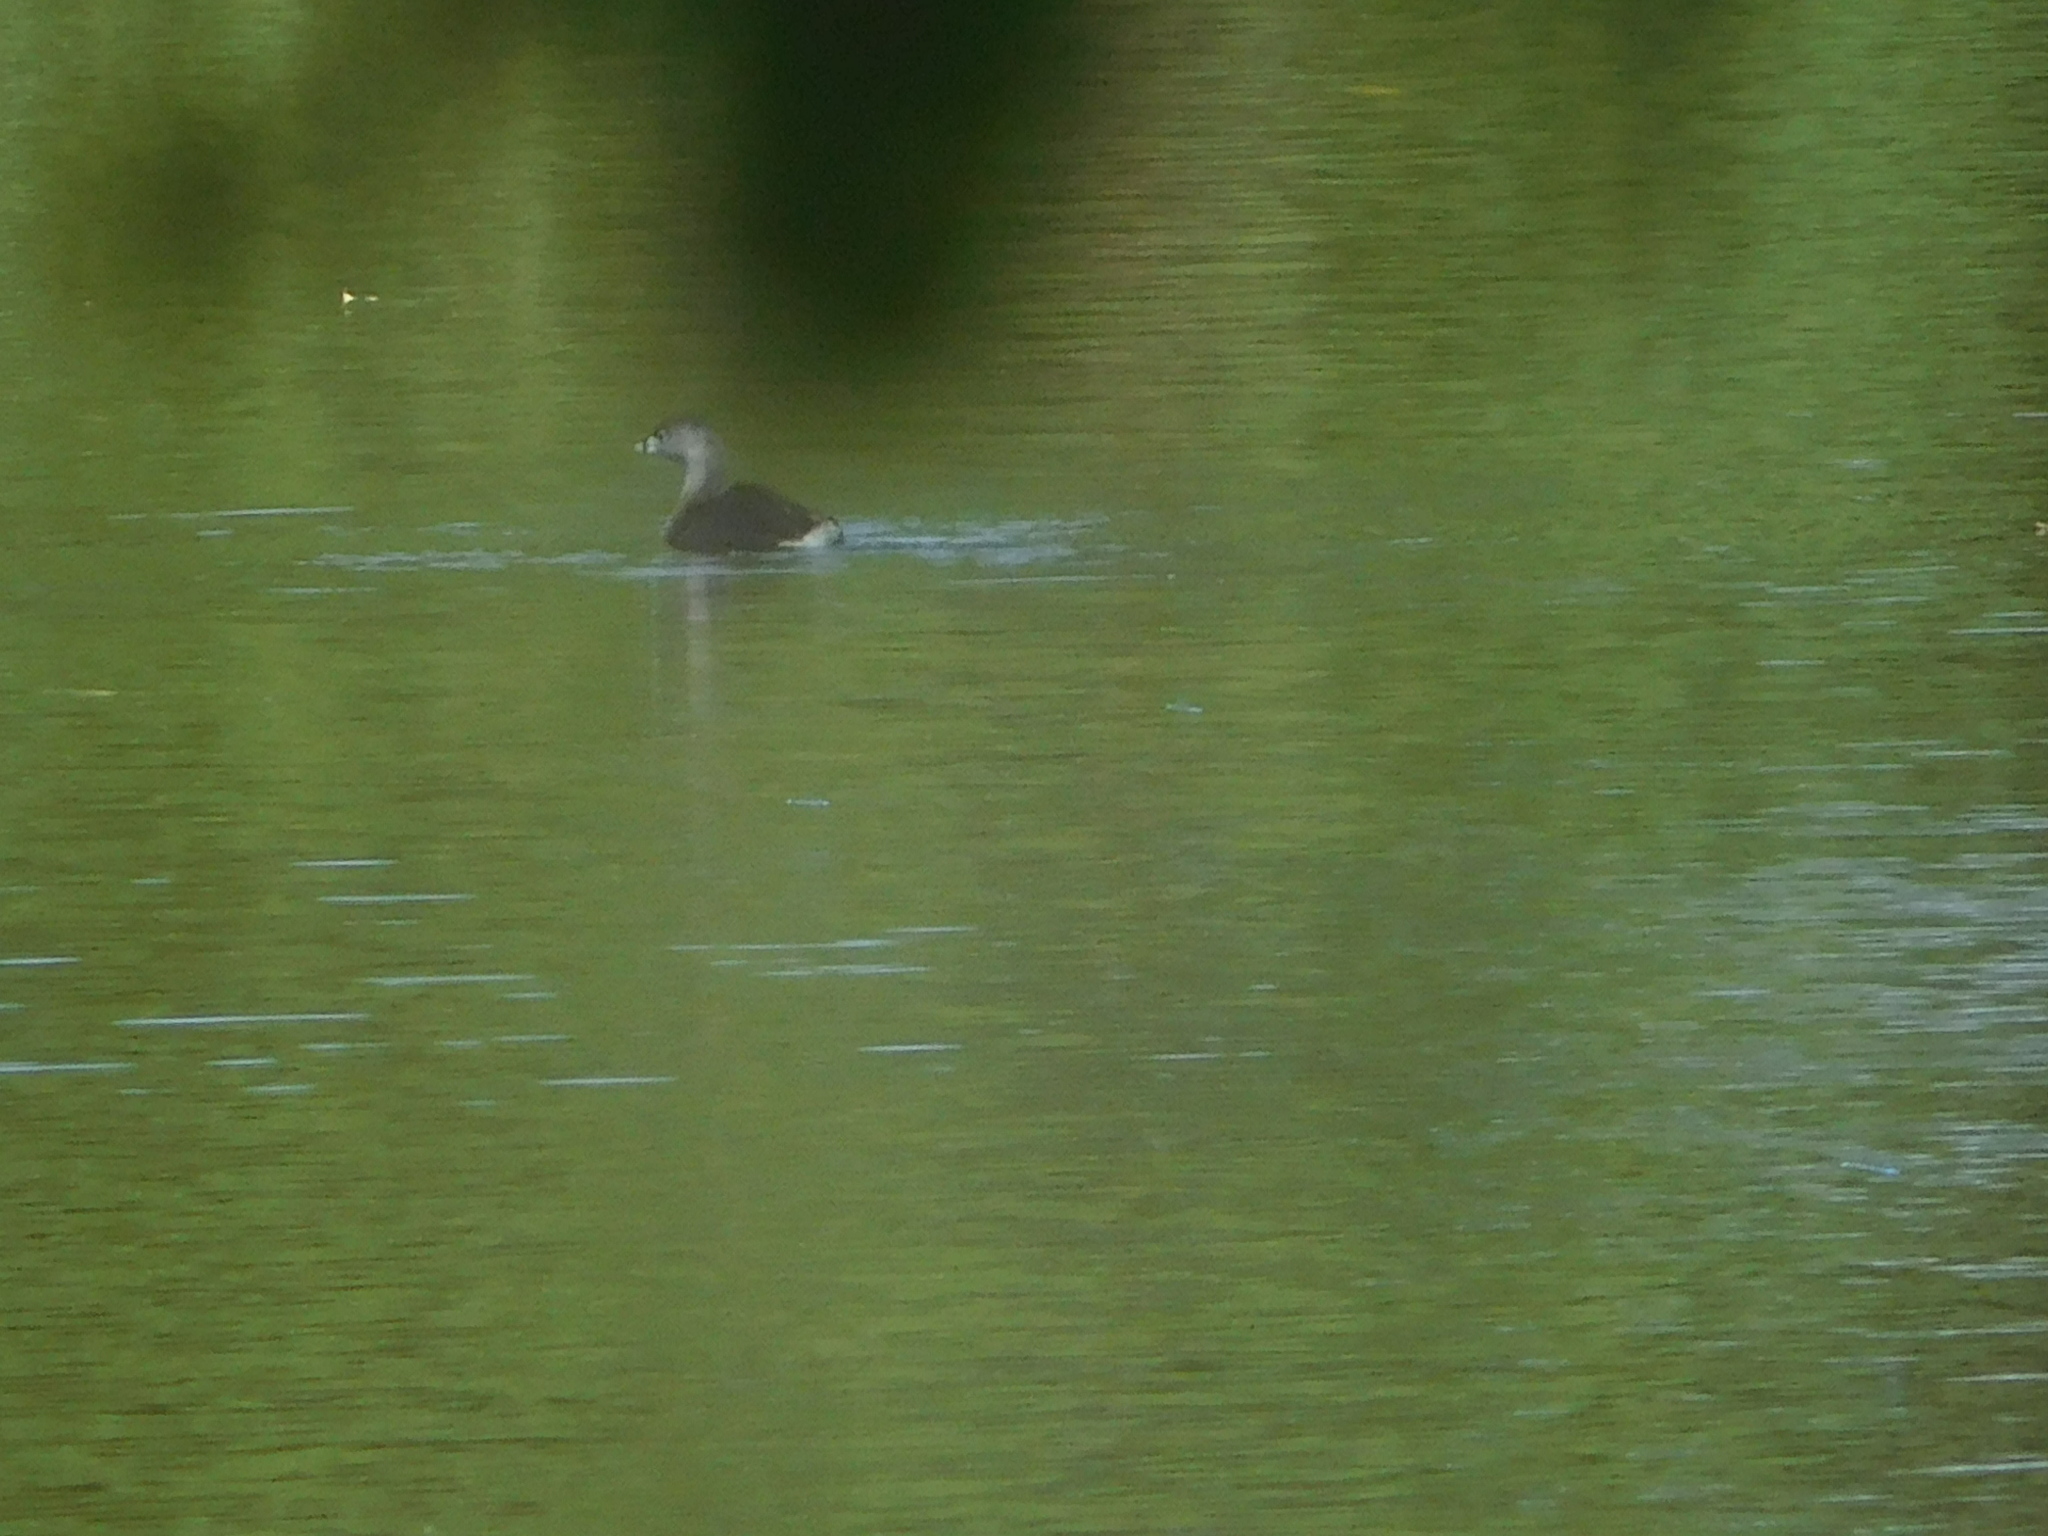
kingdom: Animalia
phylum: Chordata
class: Aves
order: Podicipediformes
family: Podicipedidae
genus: Podilymbus
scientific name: Podilymbus podiceps
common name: Pied-billed grebe
